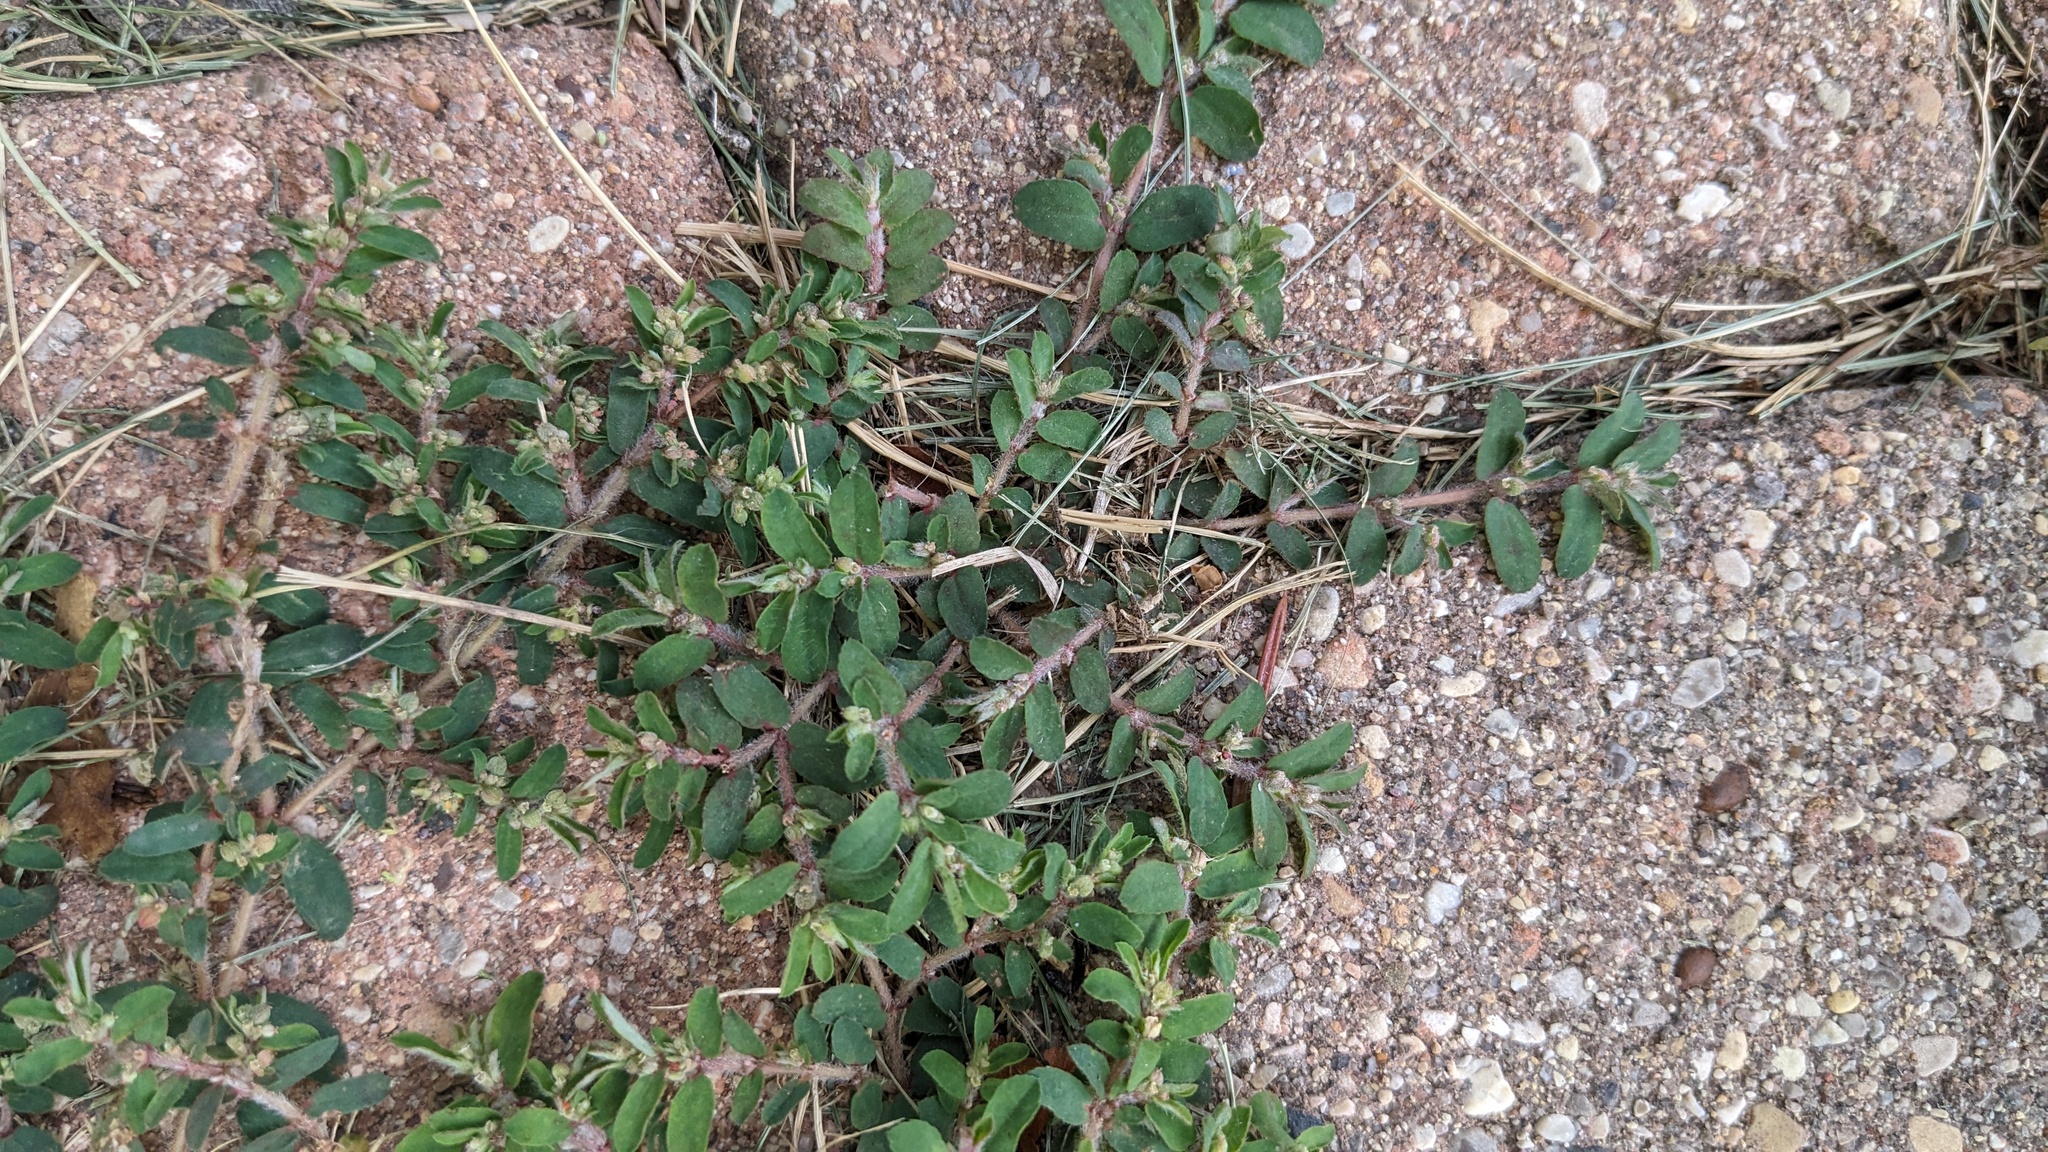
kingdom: Plantae
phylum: Tracheophyta
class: Magnoliopsida
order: Malpighiales
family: Euphorbiaceae
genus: Euphorbia
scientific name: Euphorbia maculata
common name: Spotted spurge
